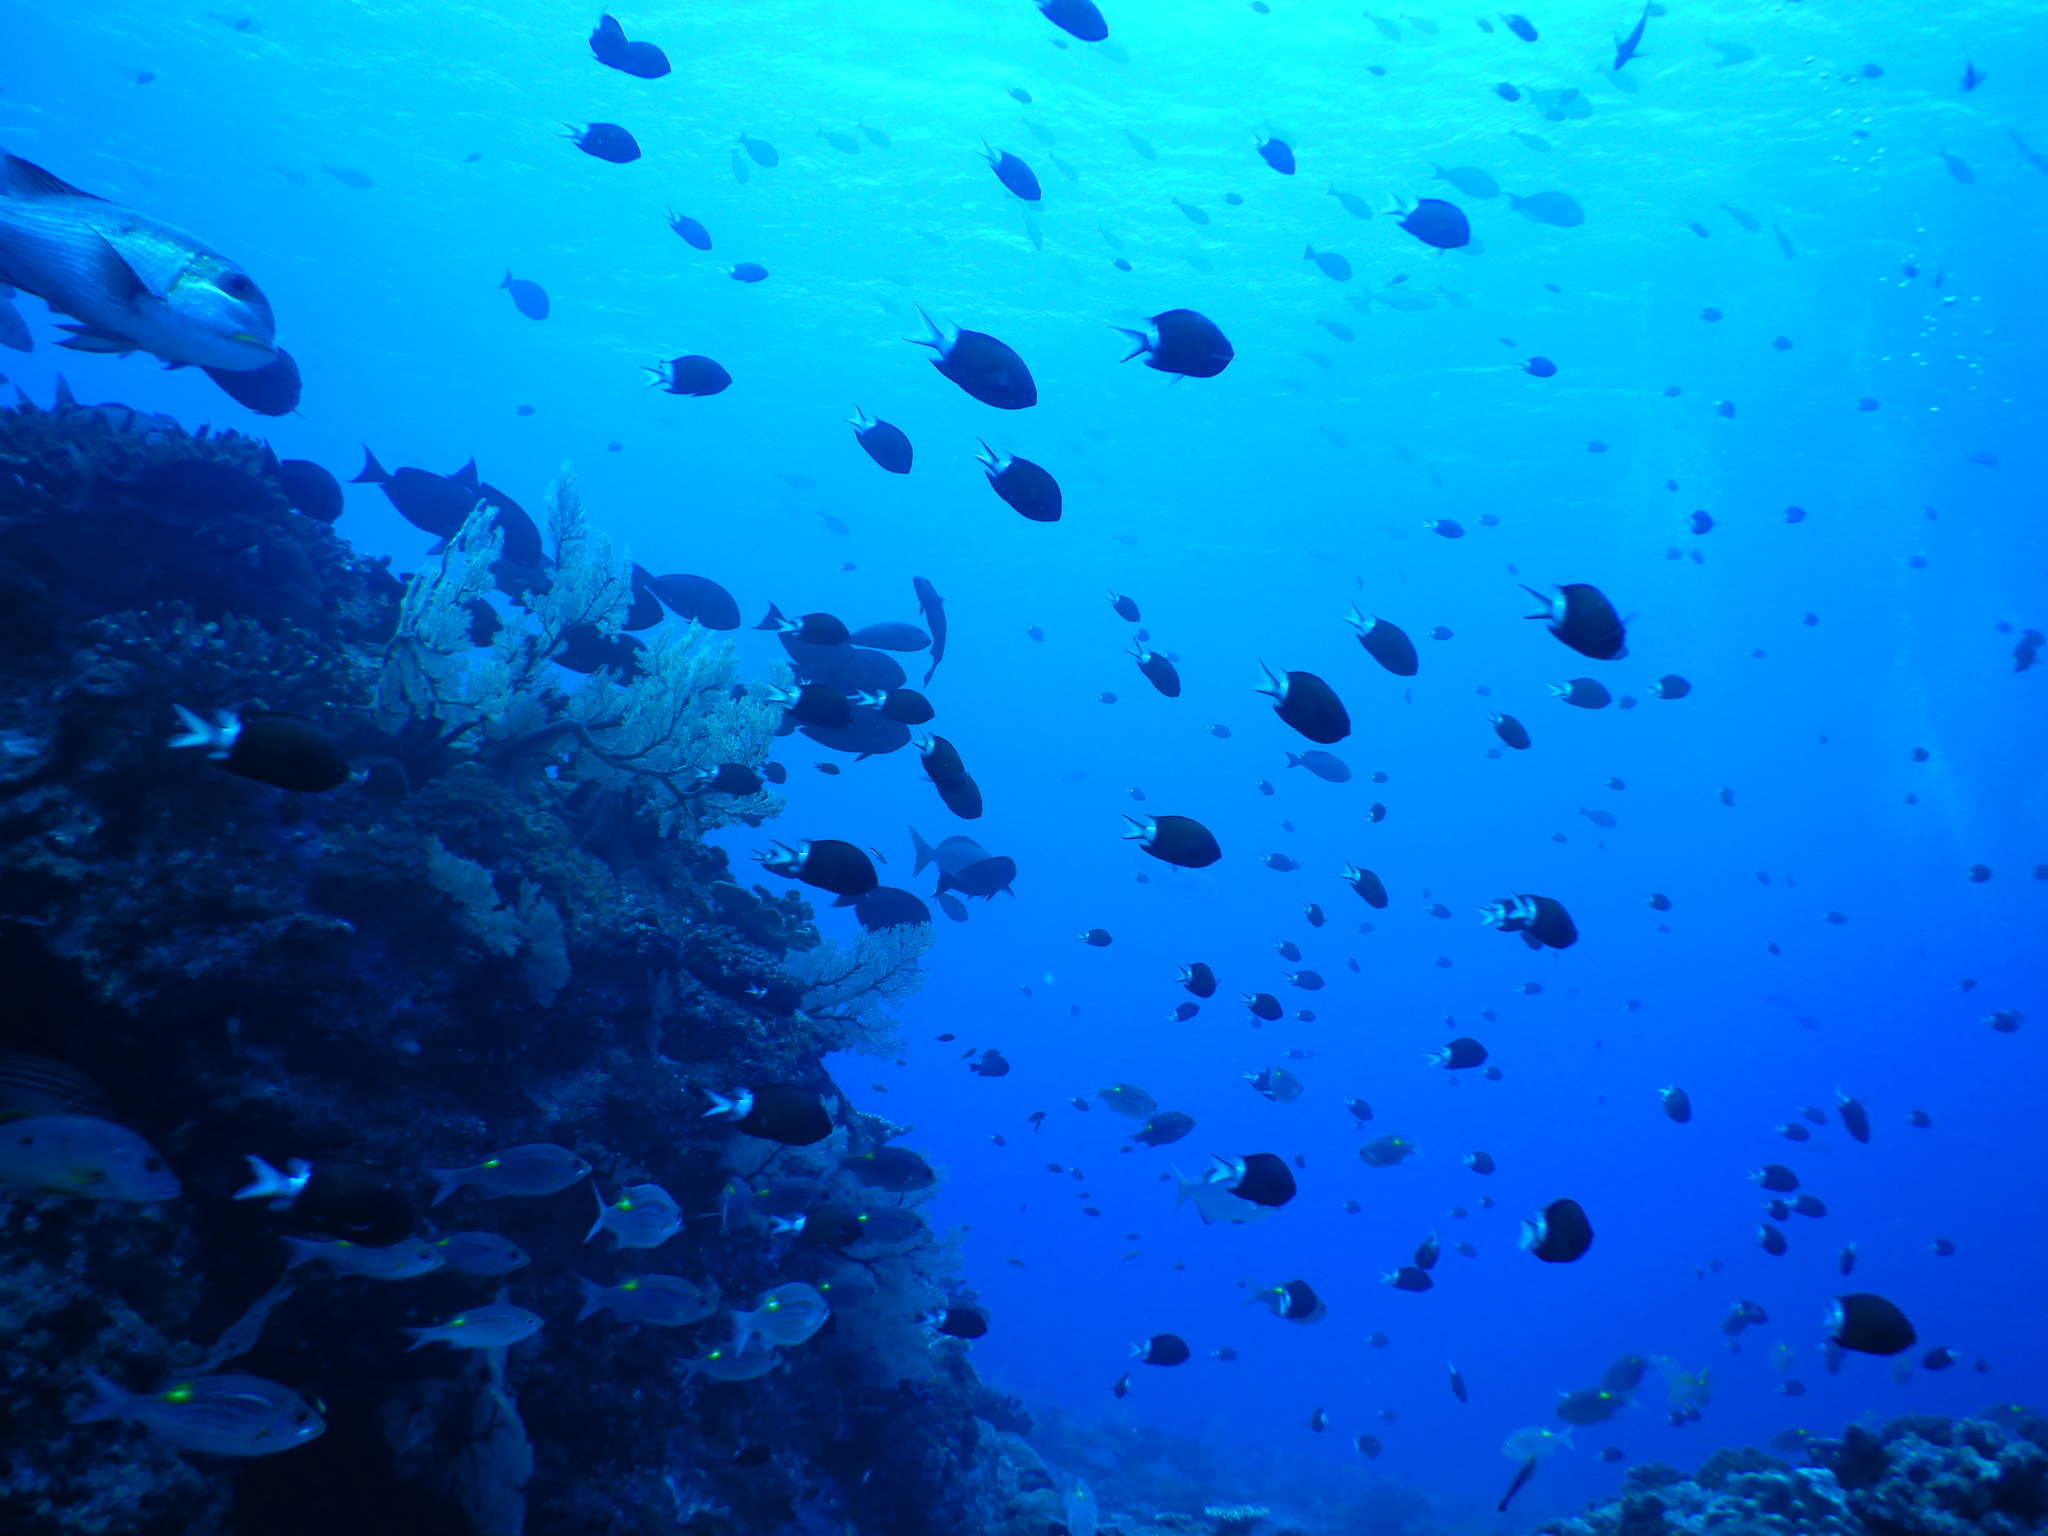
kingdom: Animalia
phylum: Chordata
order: Perciformes
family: Pomacentridae
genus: Chromis
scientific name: Chromis chrysura
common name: Stout-body chromis
